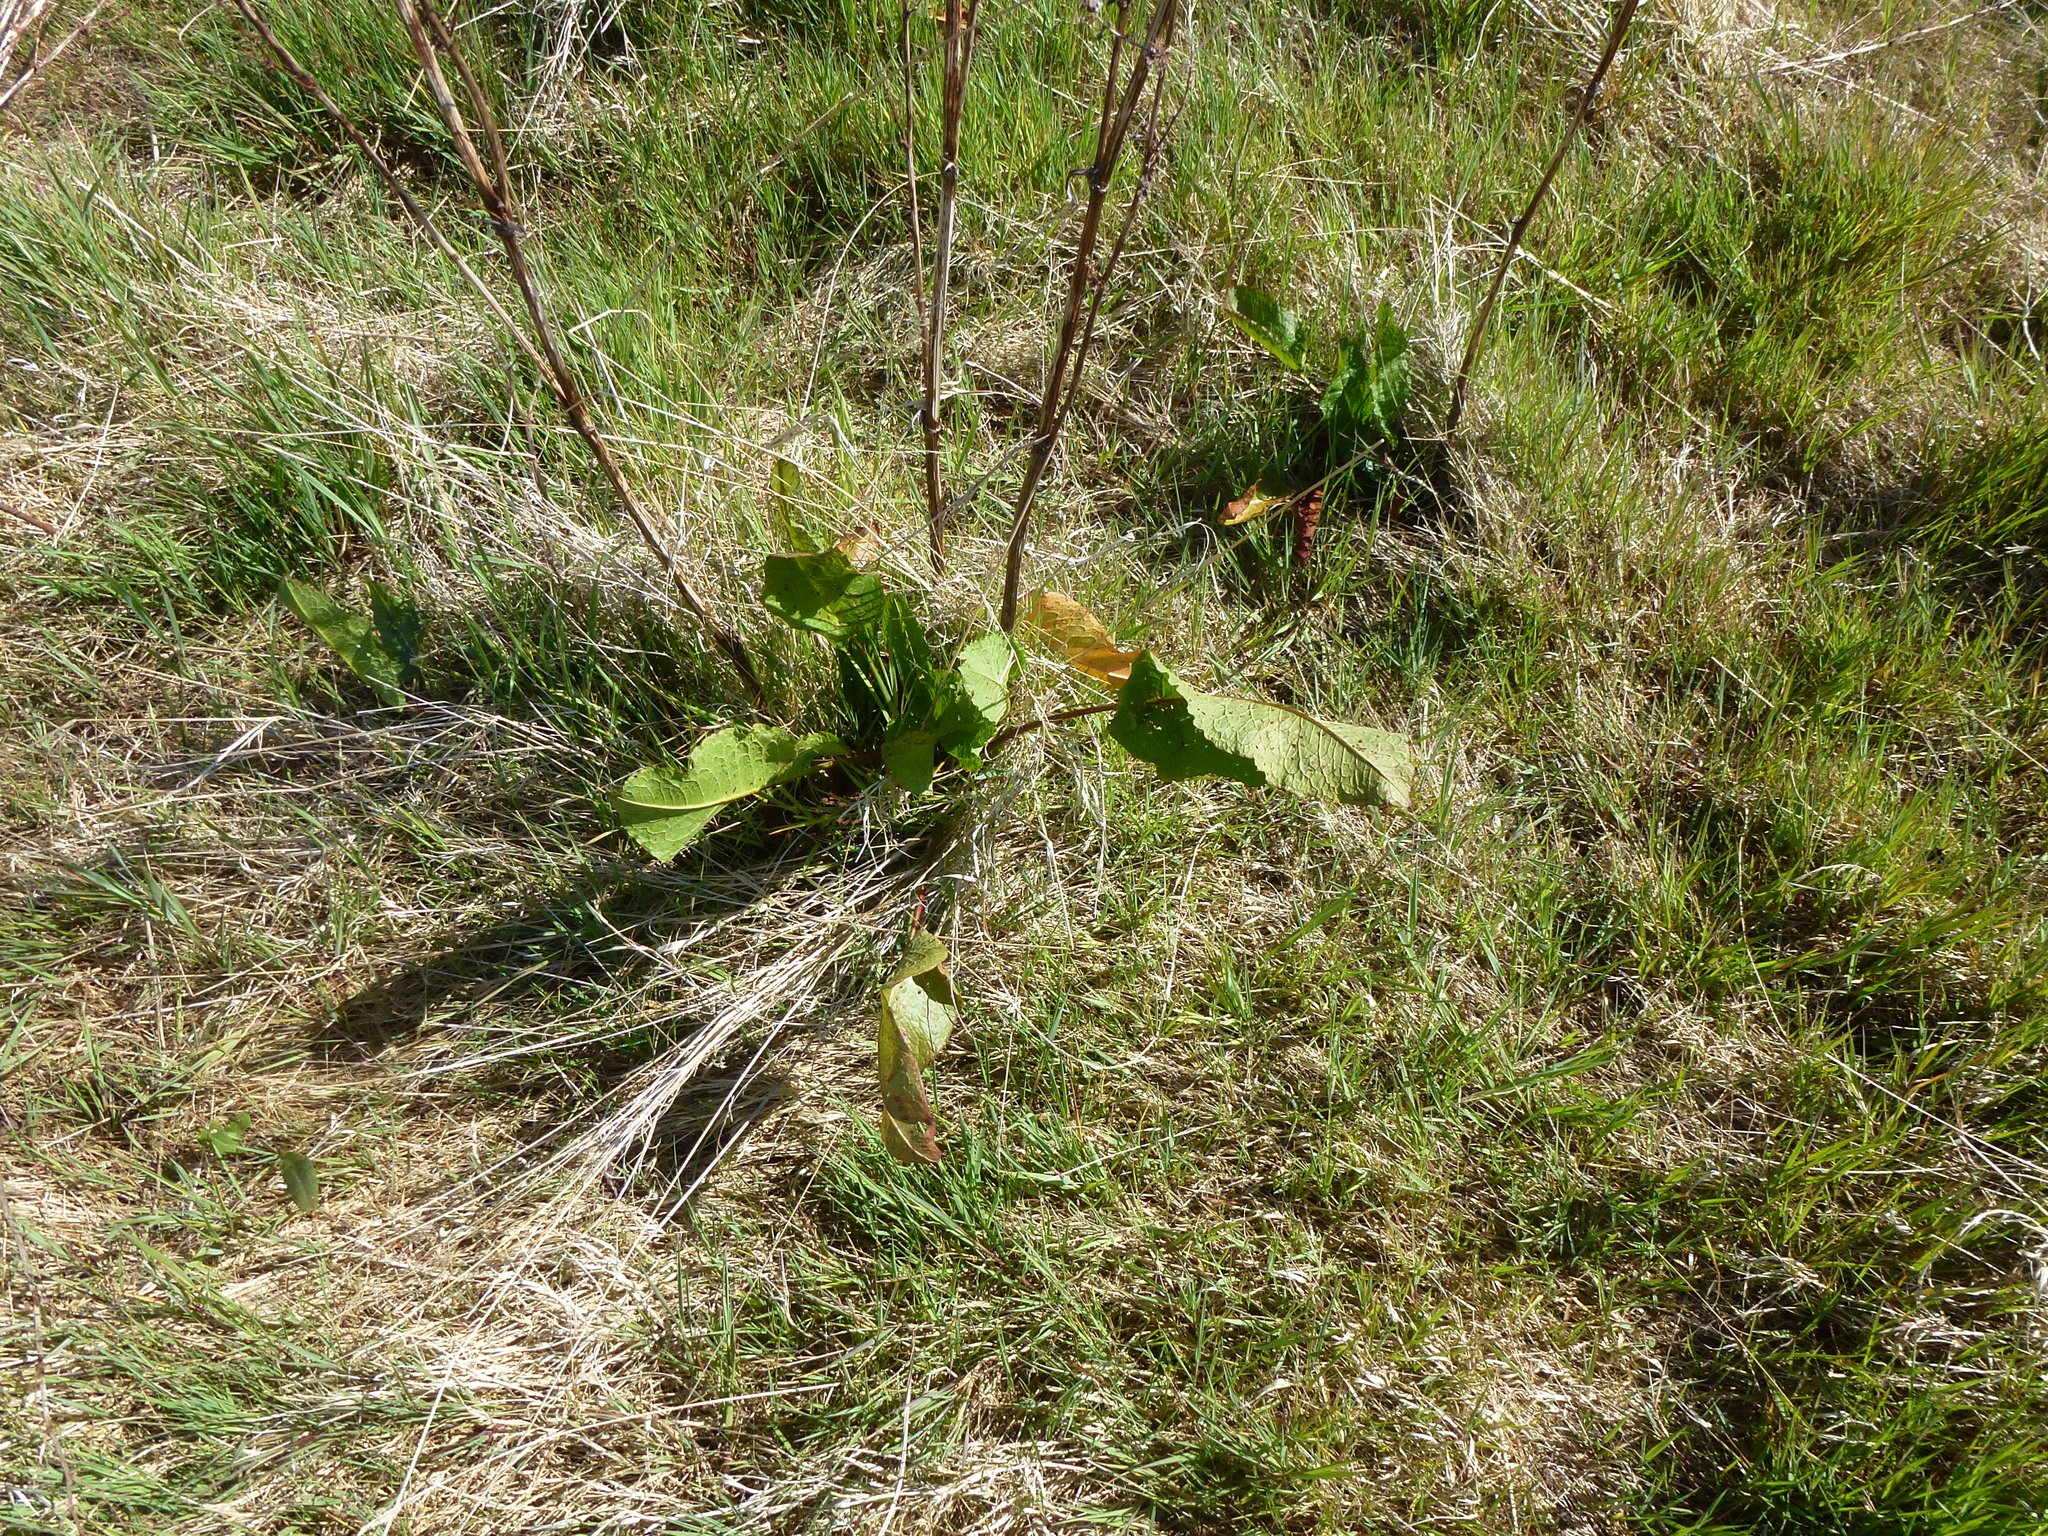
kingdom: Plantae
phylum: Tracheophyta
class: Magnoliopsida
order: Caryophyllales
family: Polygonaceae
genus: Rumex
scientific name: Rumex obtusifolius
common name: Bitter dock
